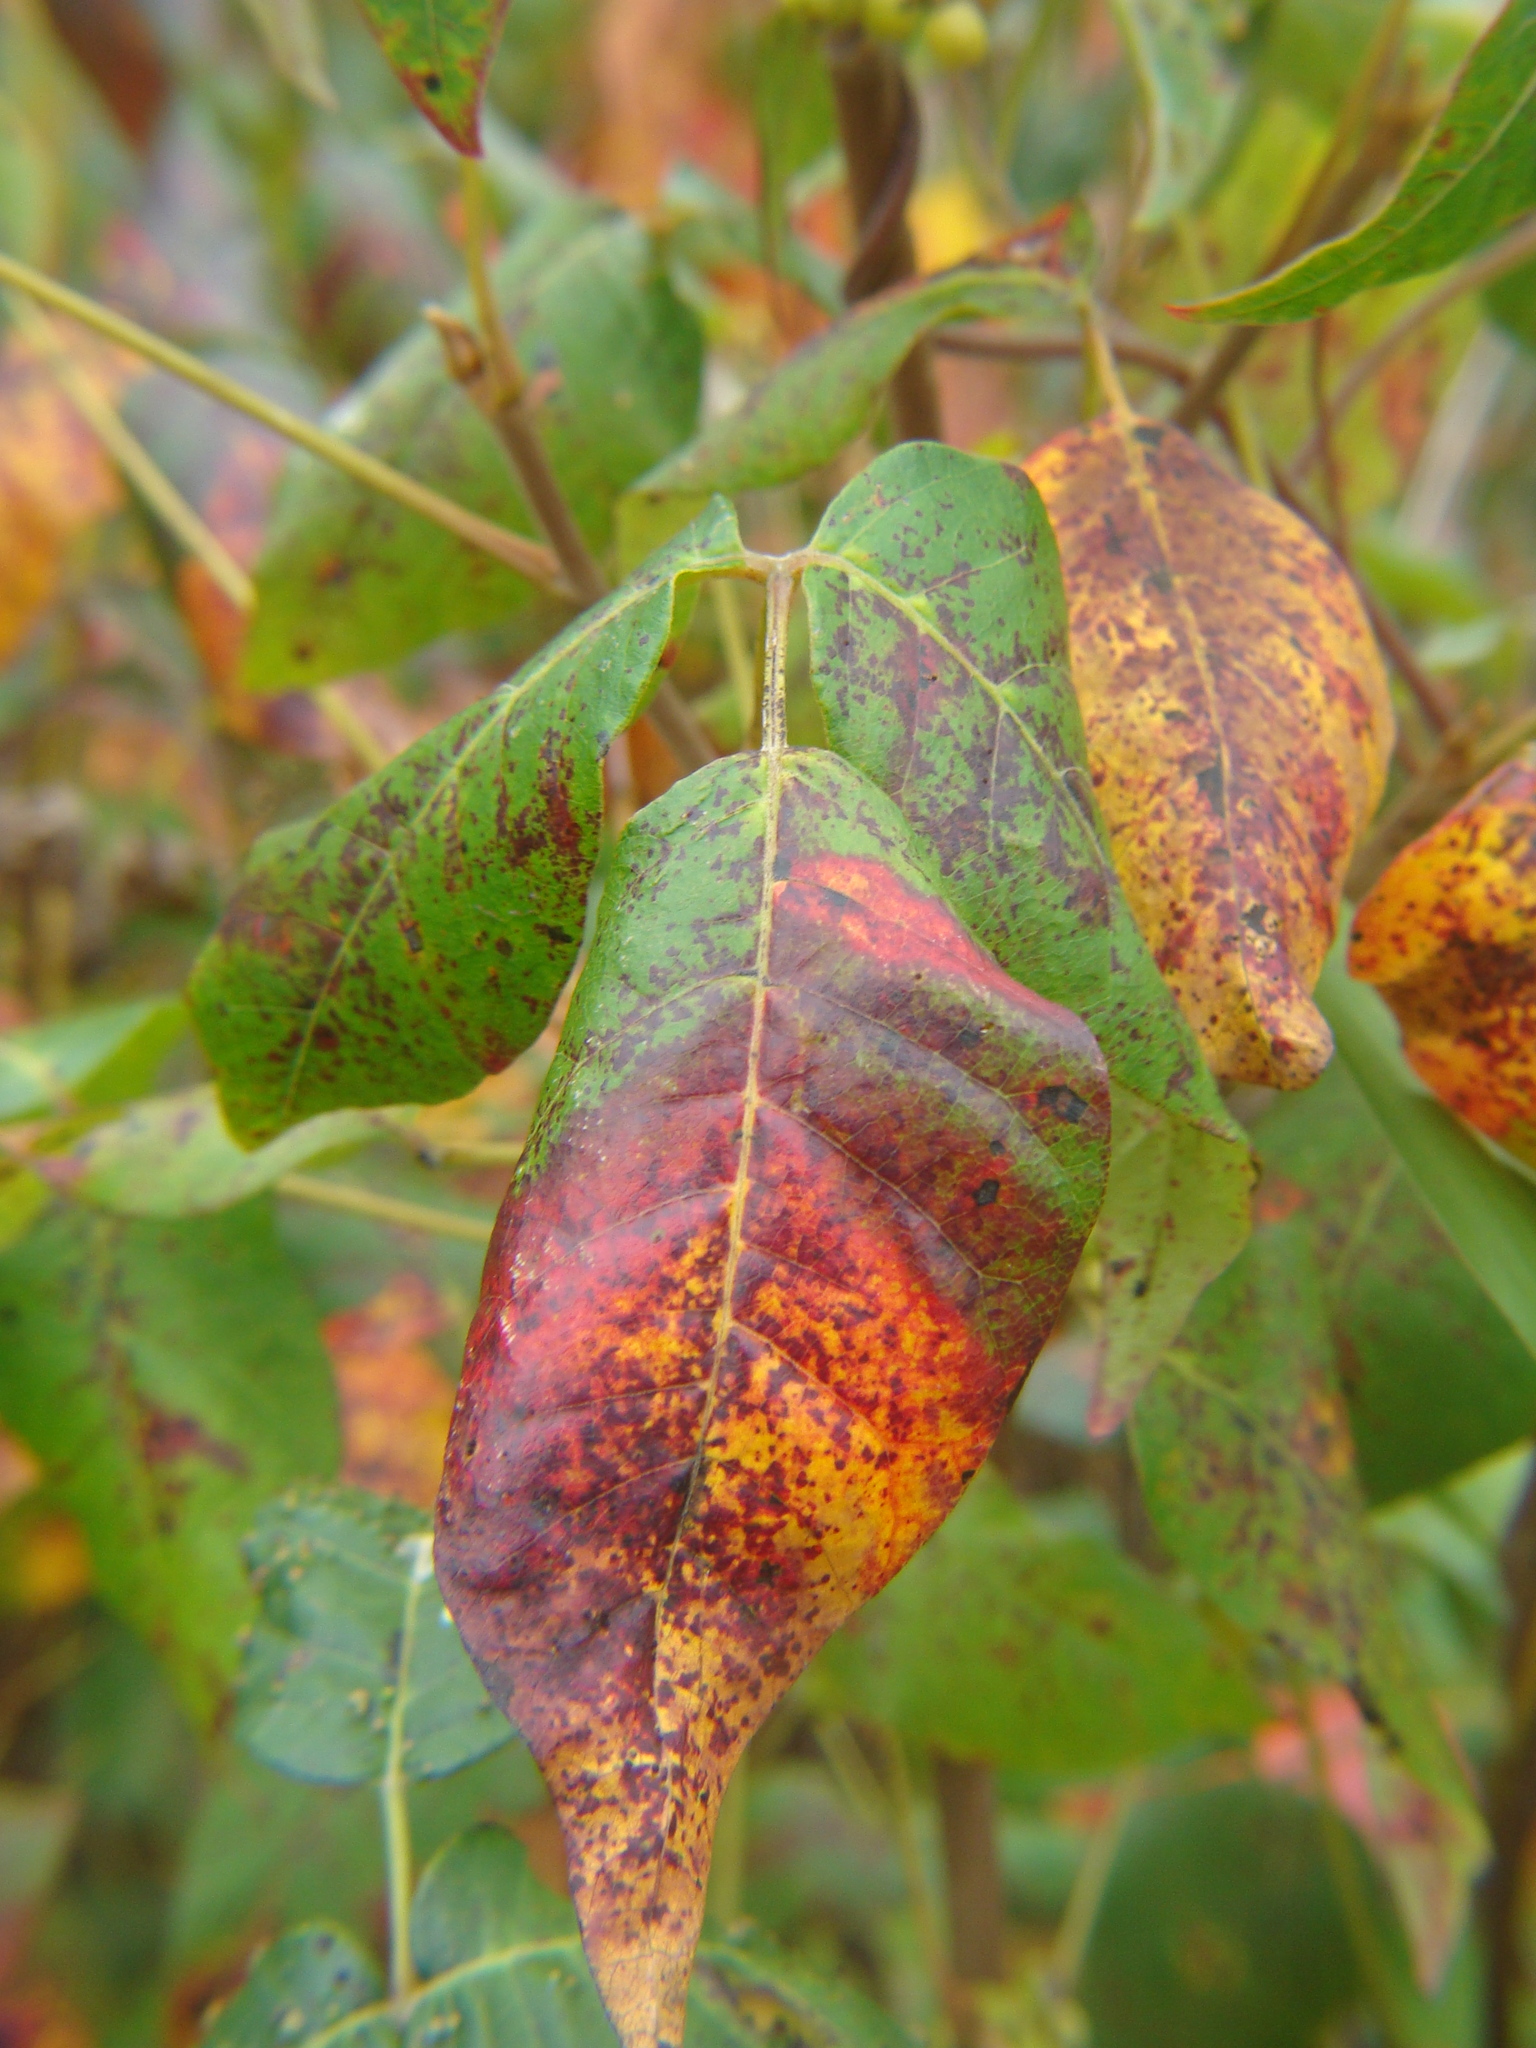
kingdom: Plantae
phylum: Tracheophyta
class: Magnoliopsida
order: Sapindales
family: Anacardiaceae
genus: Toxicodendron
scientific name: Toxicodendron radicans
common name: Poison ivy
